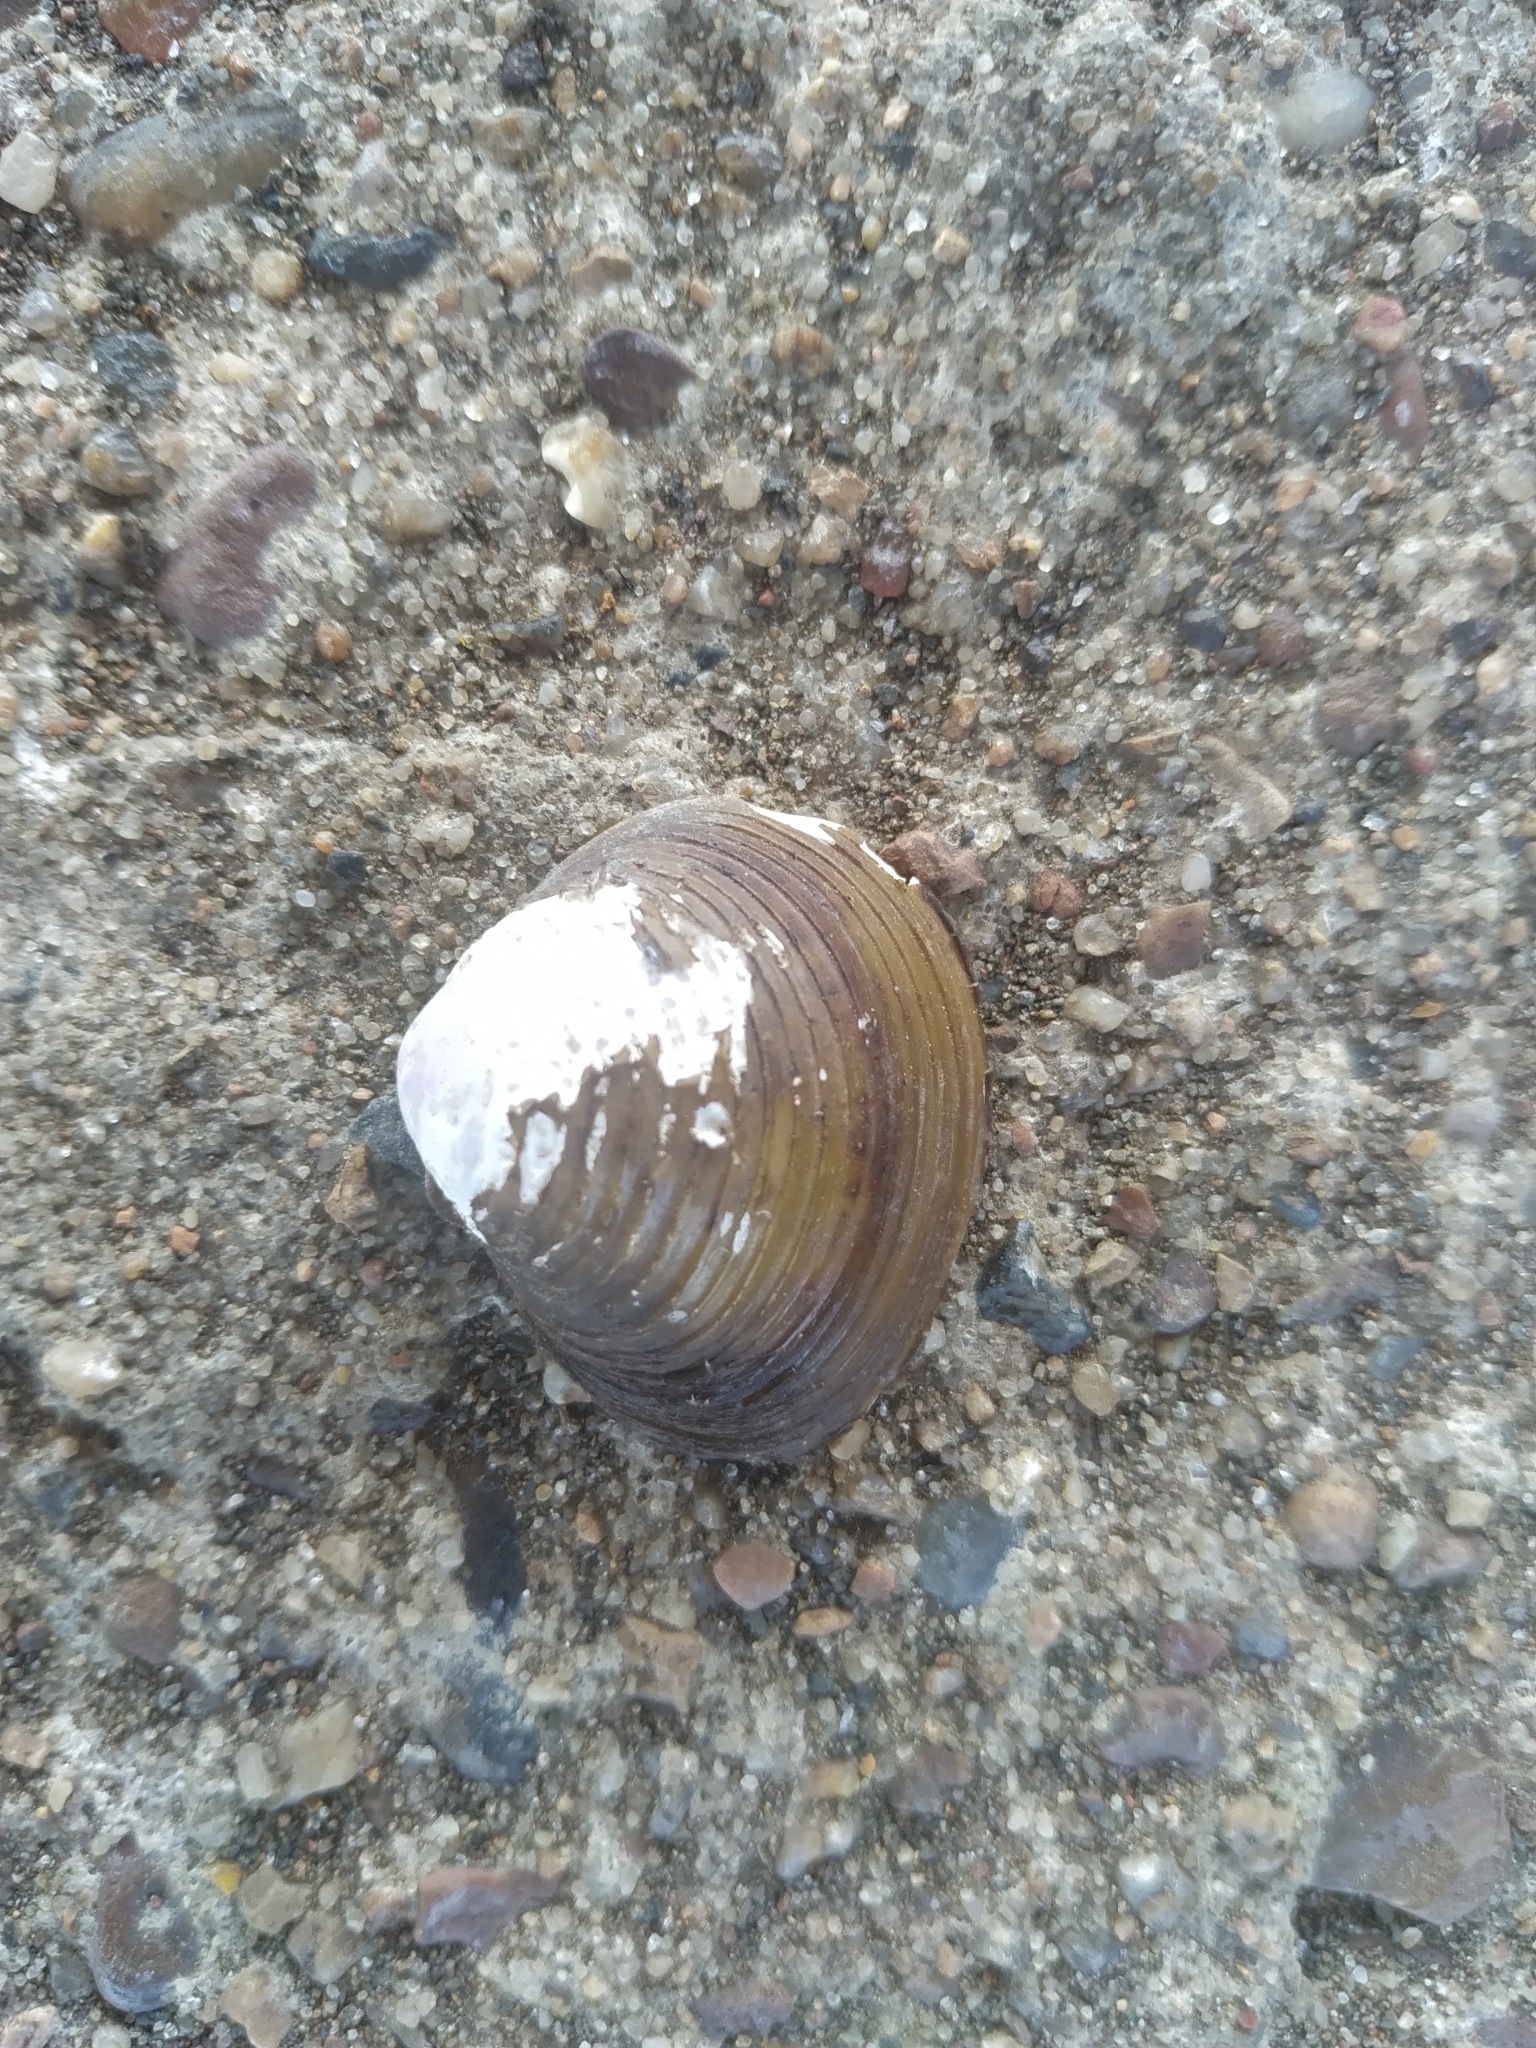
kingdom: Animalia
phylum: Mollusca
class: Bivalvia
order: Venerida
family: Cyrenidae
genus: Corbicula
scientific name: Corbicula fluminea
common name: Asian clam
